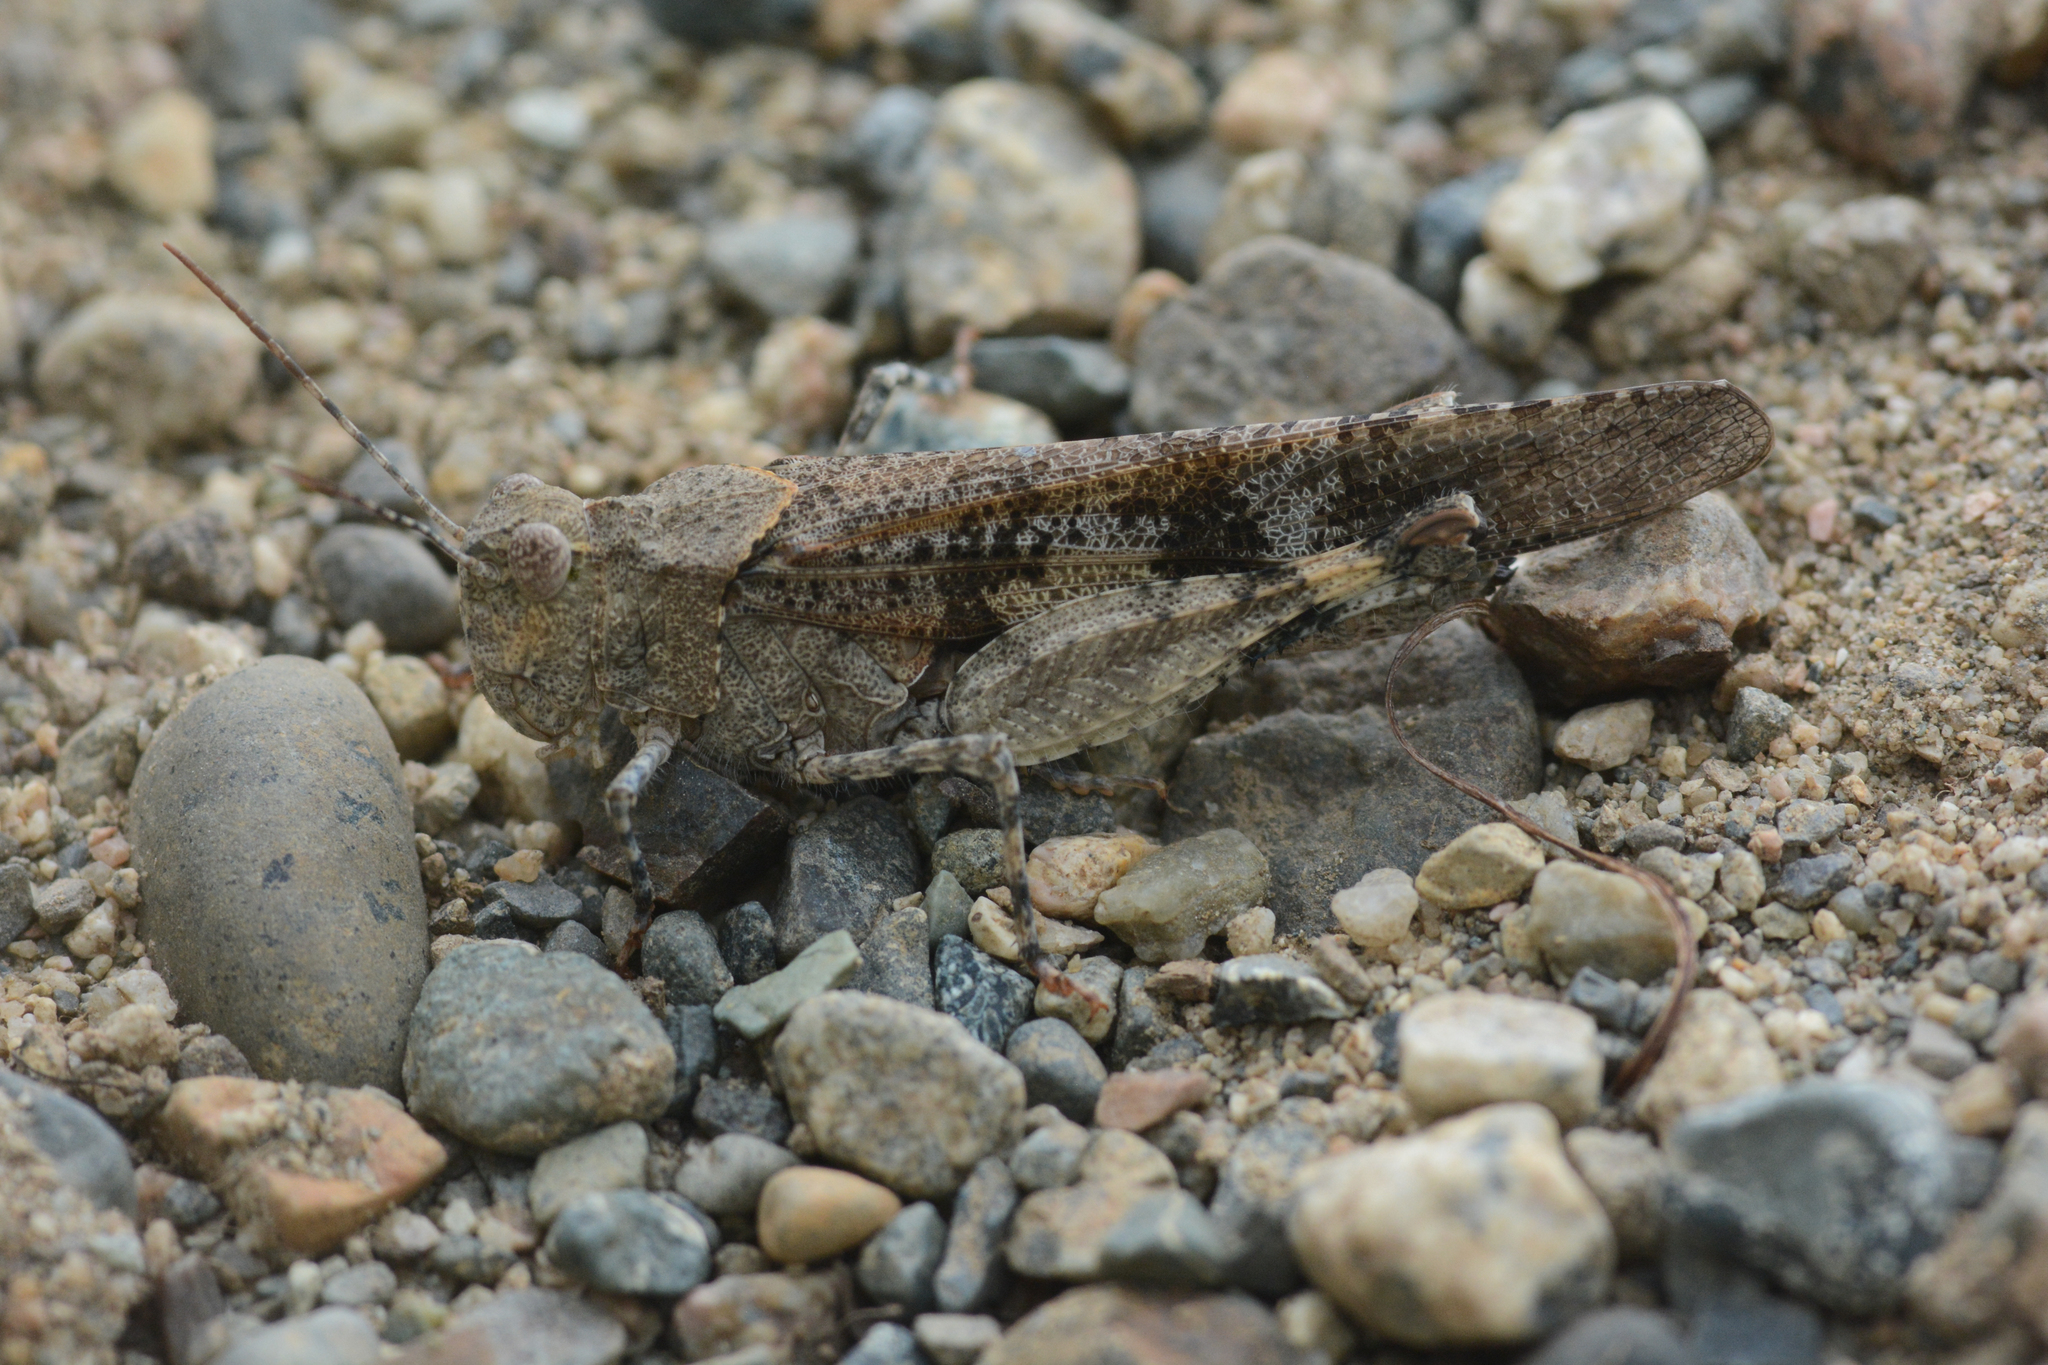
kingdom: Animalia
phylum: Arthropoda
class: Insecta
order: Orthoptera
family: Acrididae
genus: Trimerotropis
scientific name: Trimerotropis fontana
